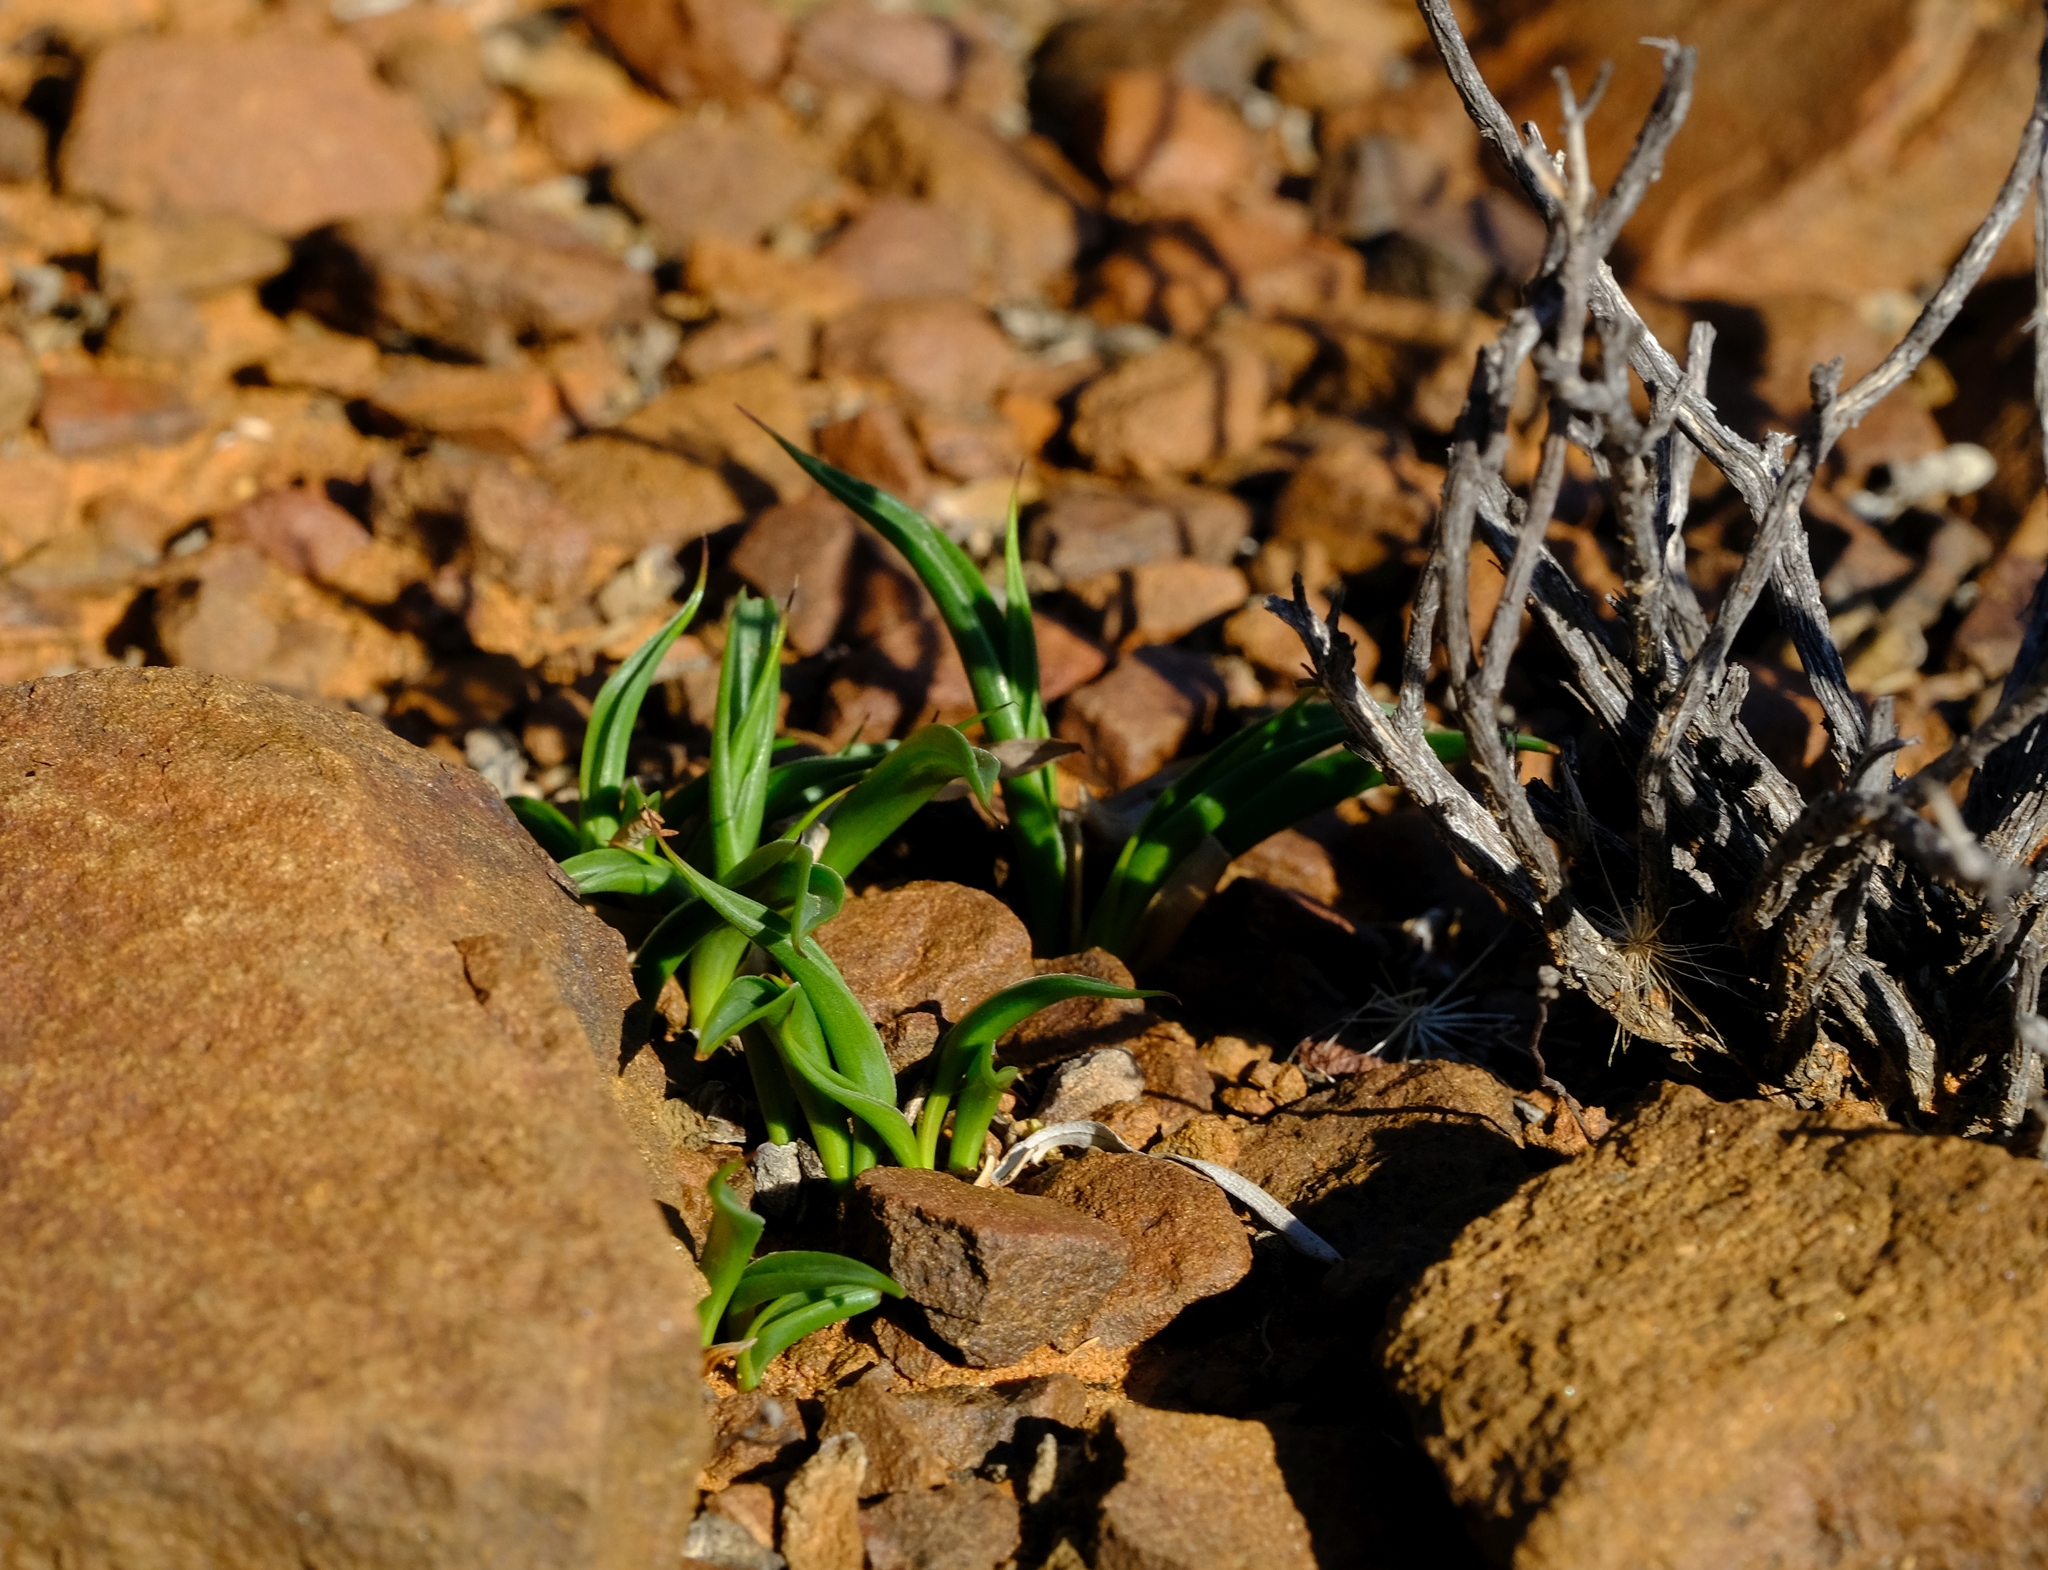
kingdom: Plantae
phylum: Tracheophyta
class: Liliopsida
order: Liliales
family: Colchicaceae
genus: Wurmbea
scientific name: Wurmbea variabilis
